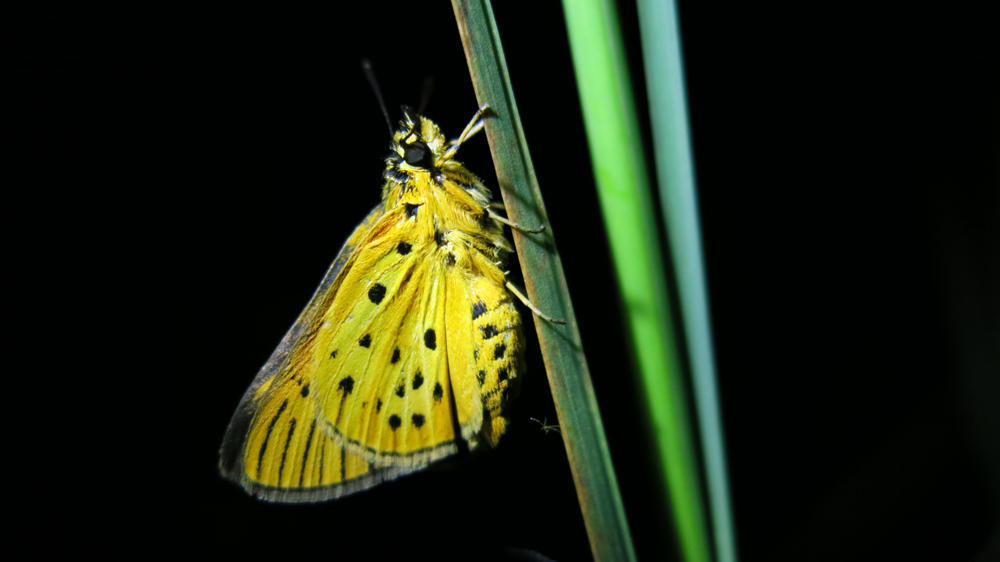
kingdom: Animalia
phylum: Arthropoda
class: Insecta
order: Lepidoptera
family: Hesperiidae
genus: Kedestes
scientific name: Kedestes lepenula
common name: Chequered ranger
